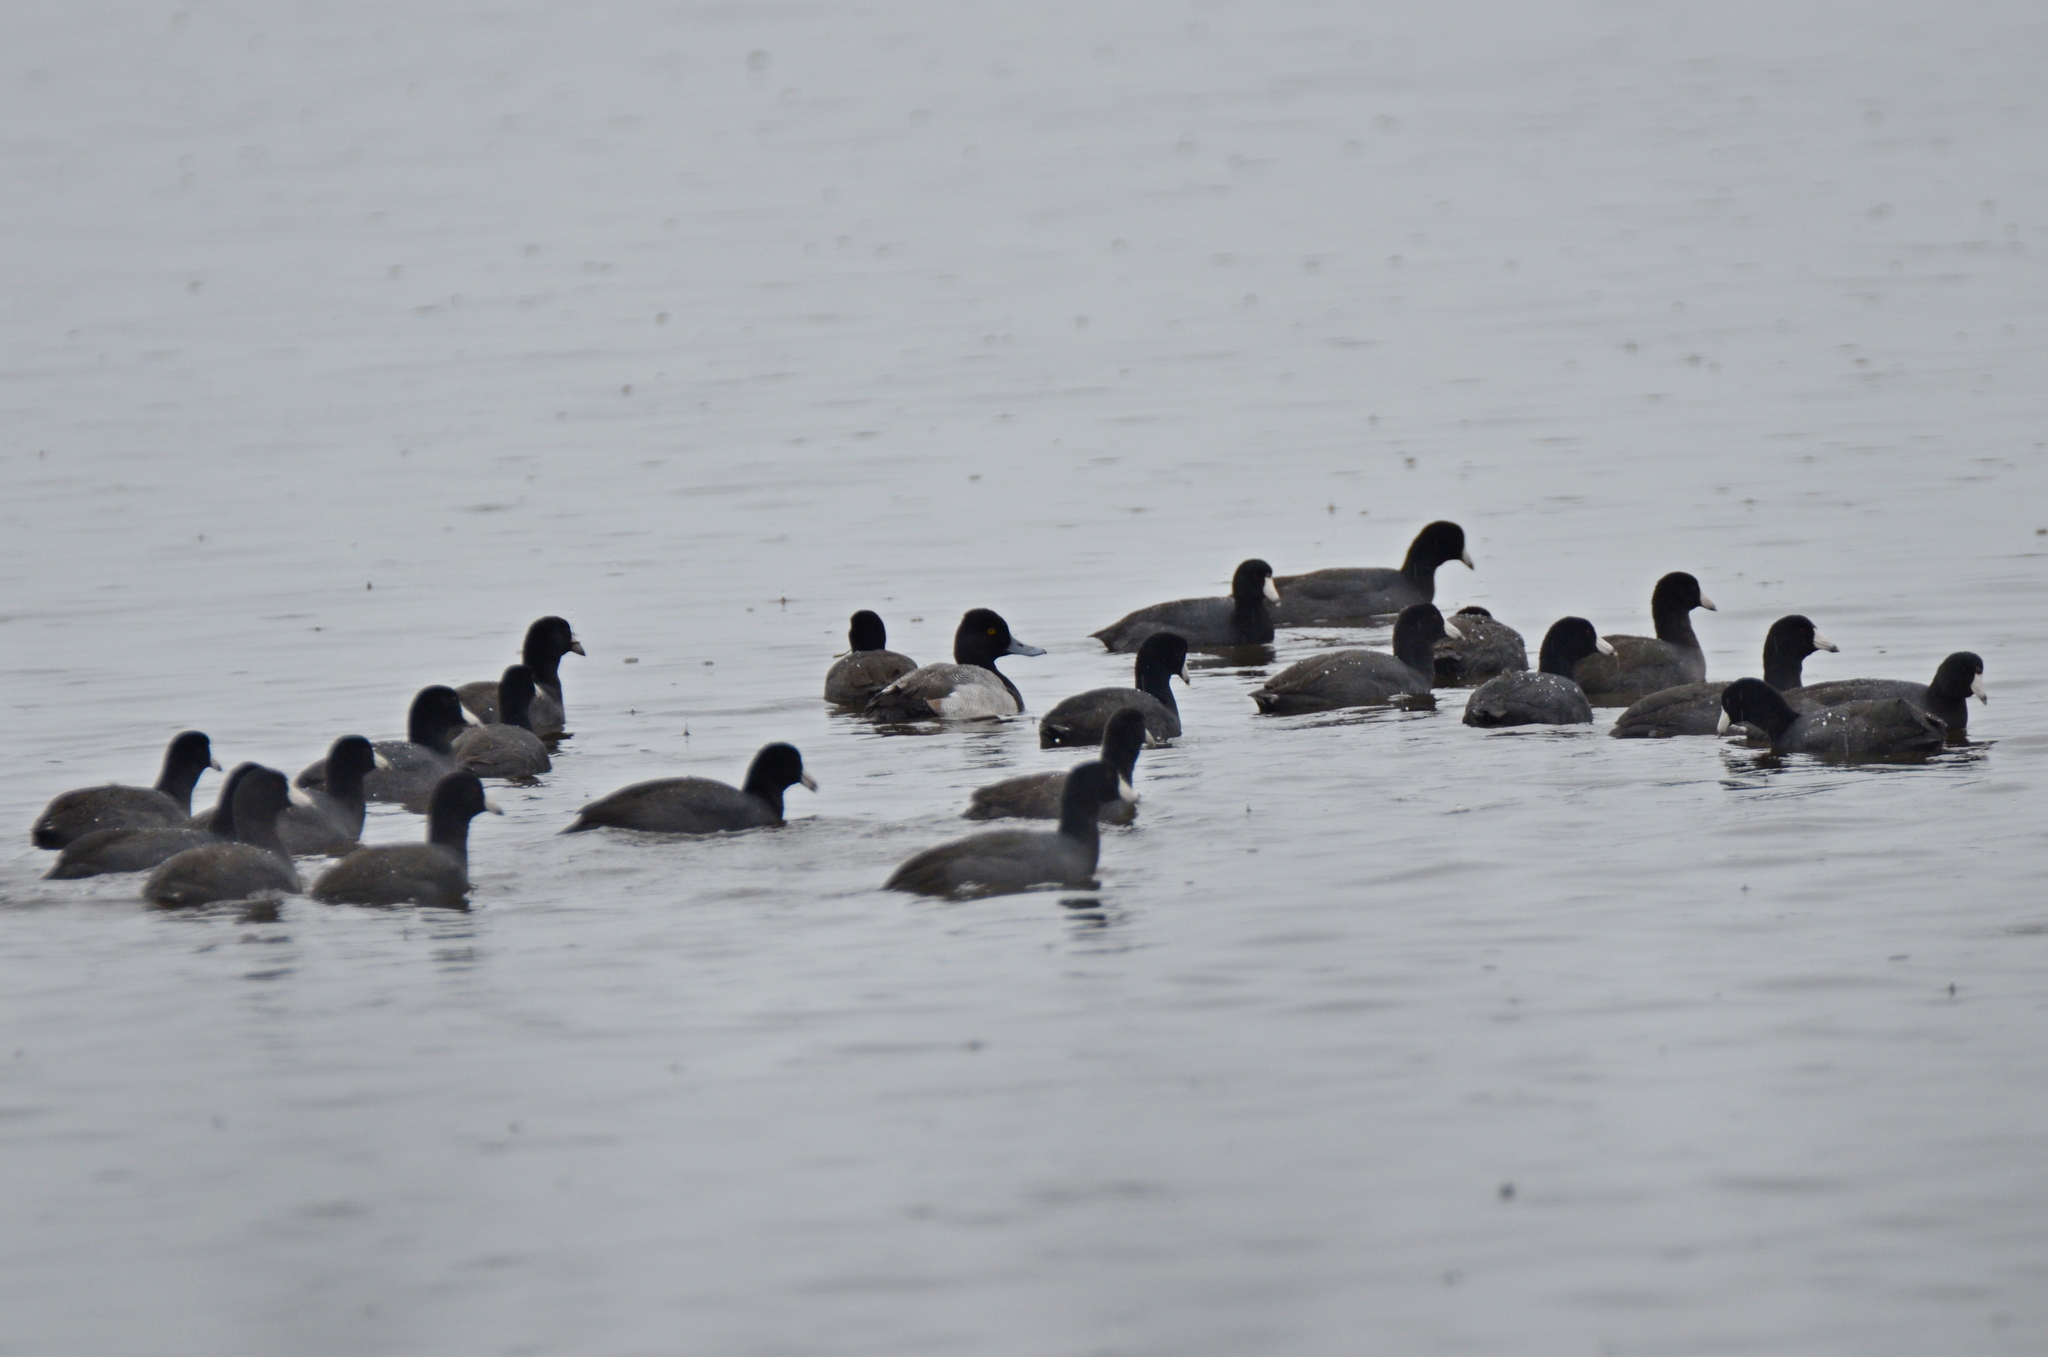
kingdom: Animalia
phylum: Chordata
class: Aves
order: Anseriformes
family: Anatidae
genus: Aythya
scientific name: Aythya affinis
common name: Lesser scaup
